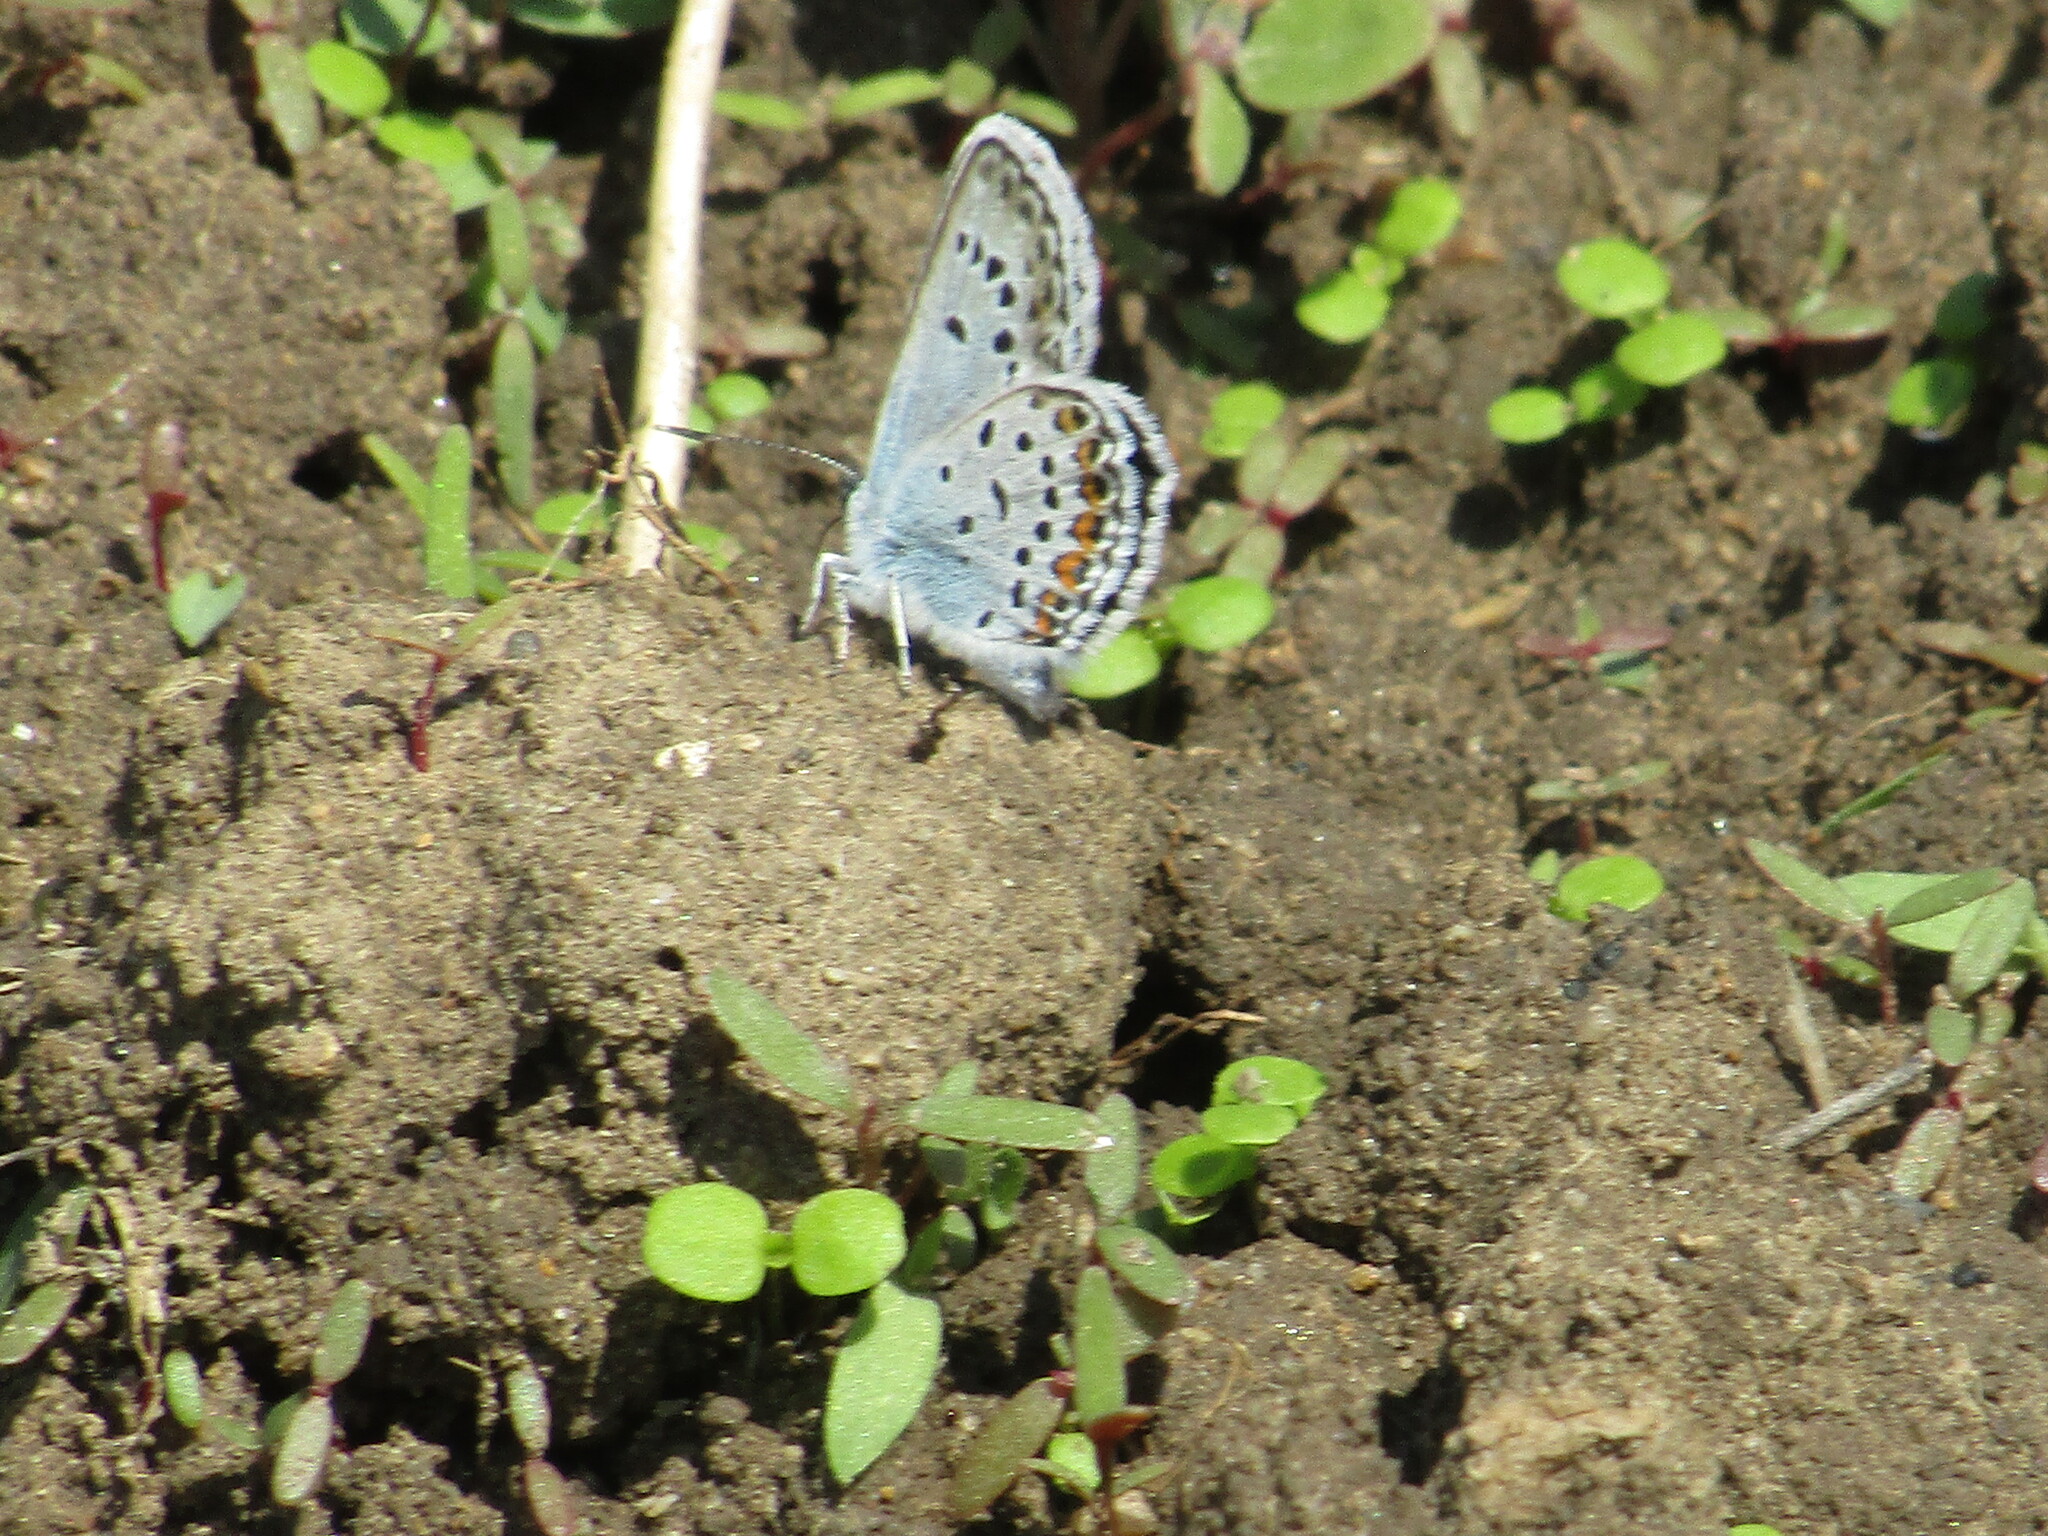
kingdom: Animalia
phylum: Arthropoda
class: Insecta
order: Lepidoptera
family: Lycaenidae
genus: Plebejus
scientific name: Plebejus argus
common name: Silver-studded blue
